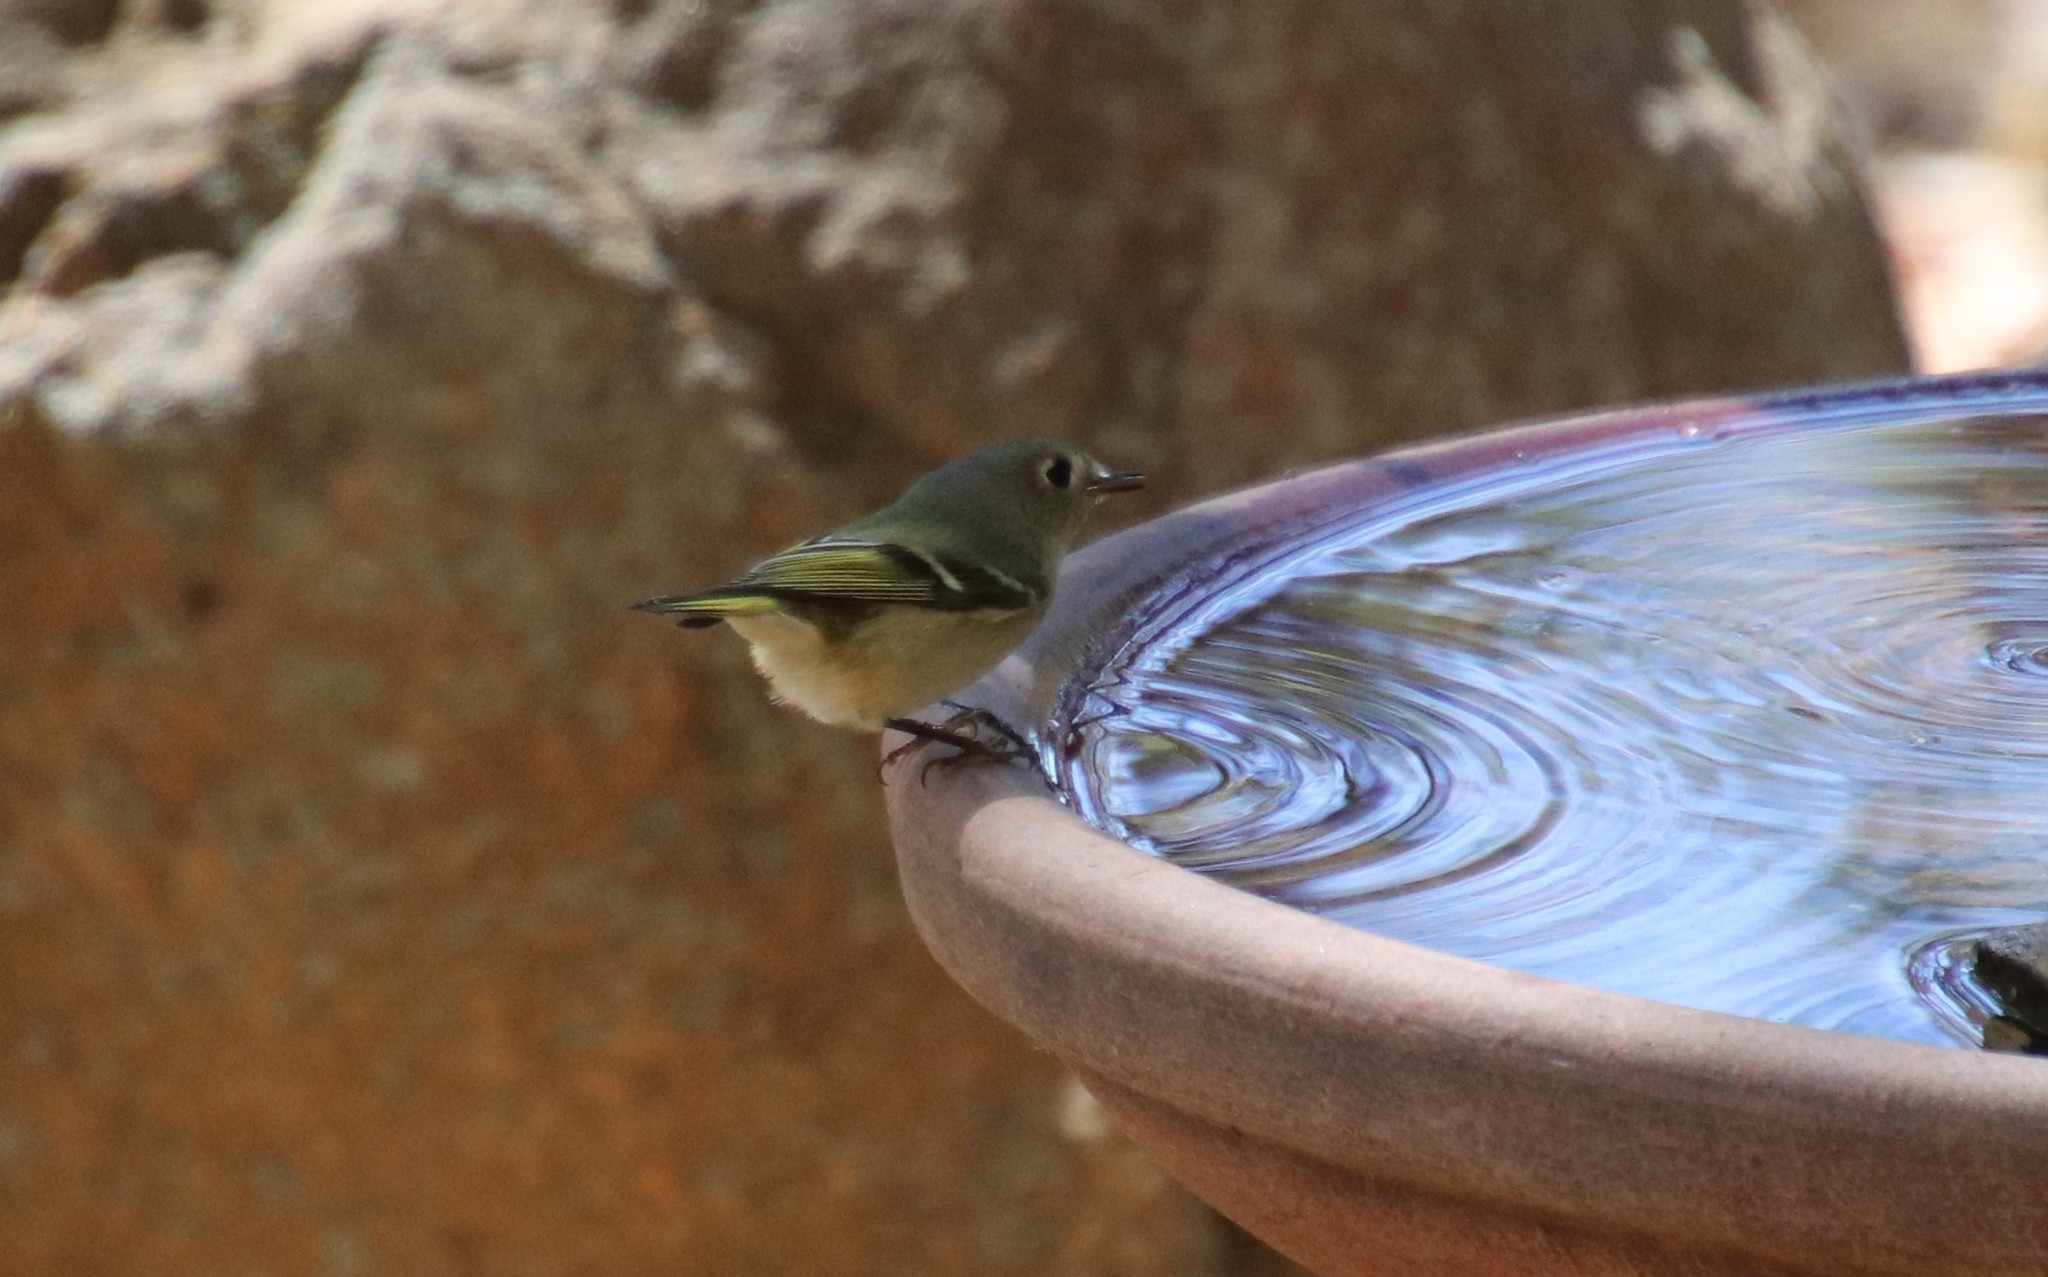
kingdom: Animalia
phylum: Chordata
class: Aves
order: Passeriformes
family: Regulidae
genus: Regulus
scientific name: Regulus calendula
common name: Ruby-crowned kinglet
